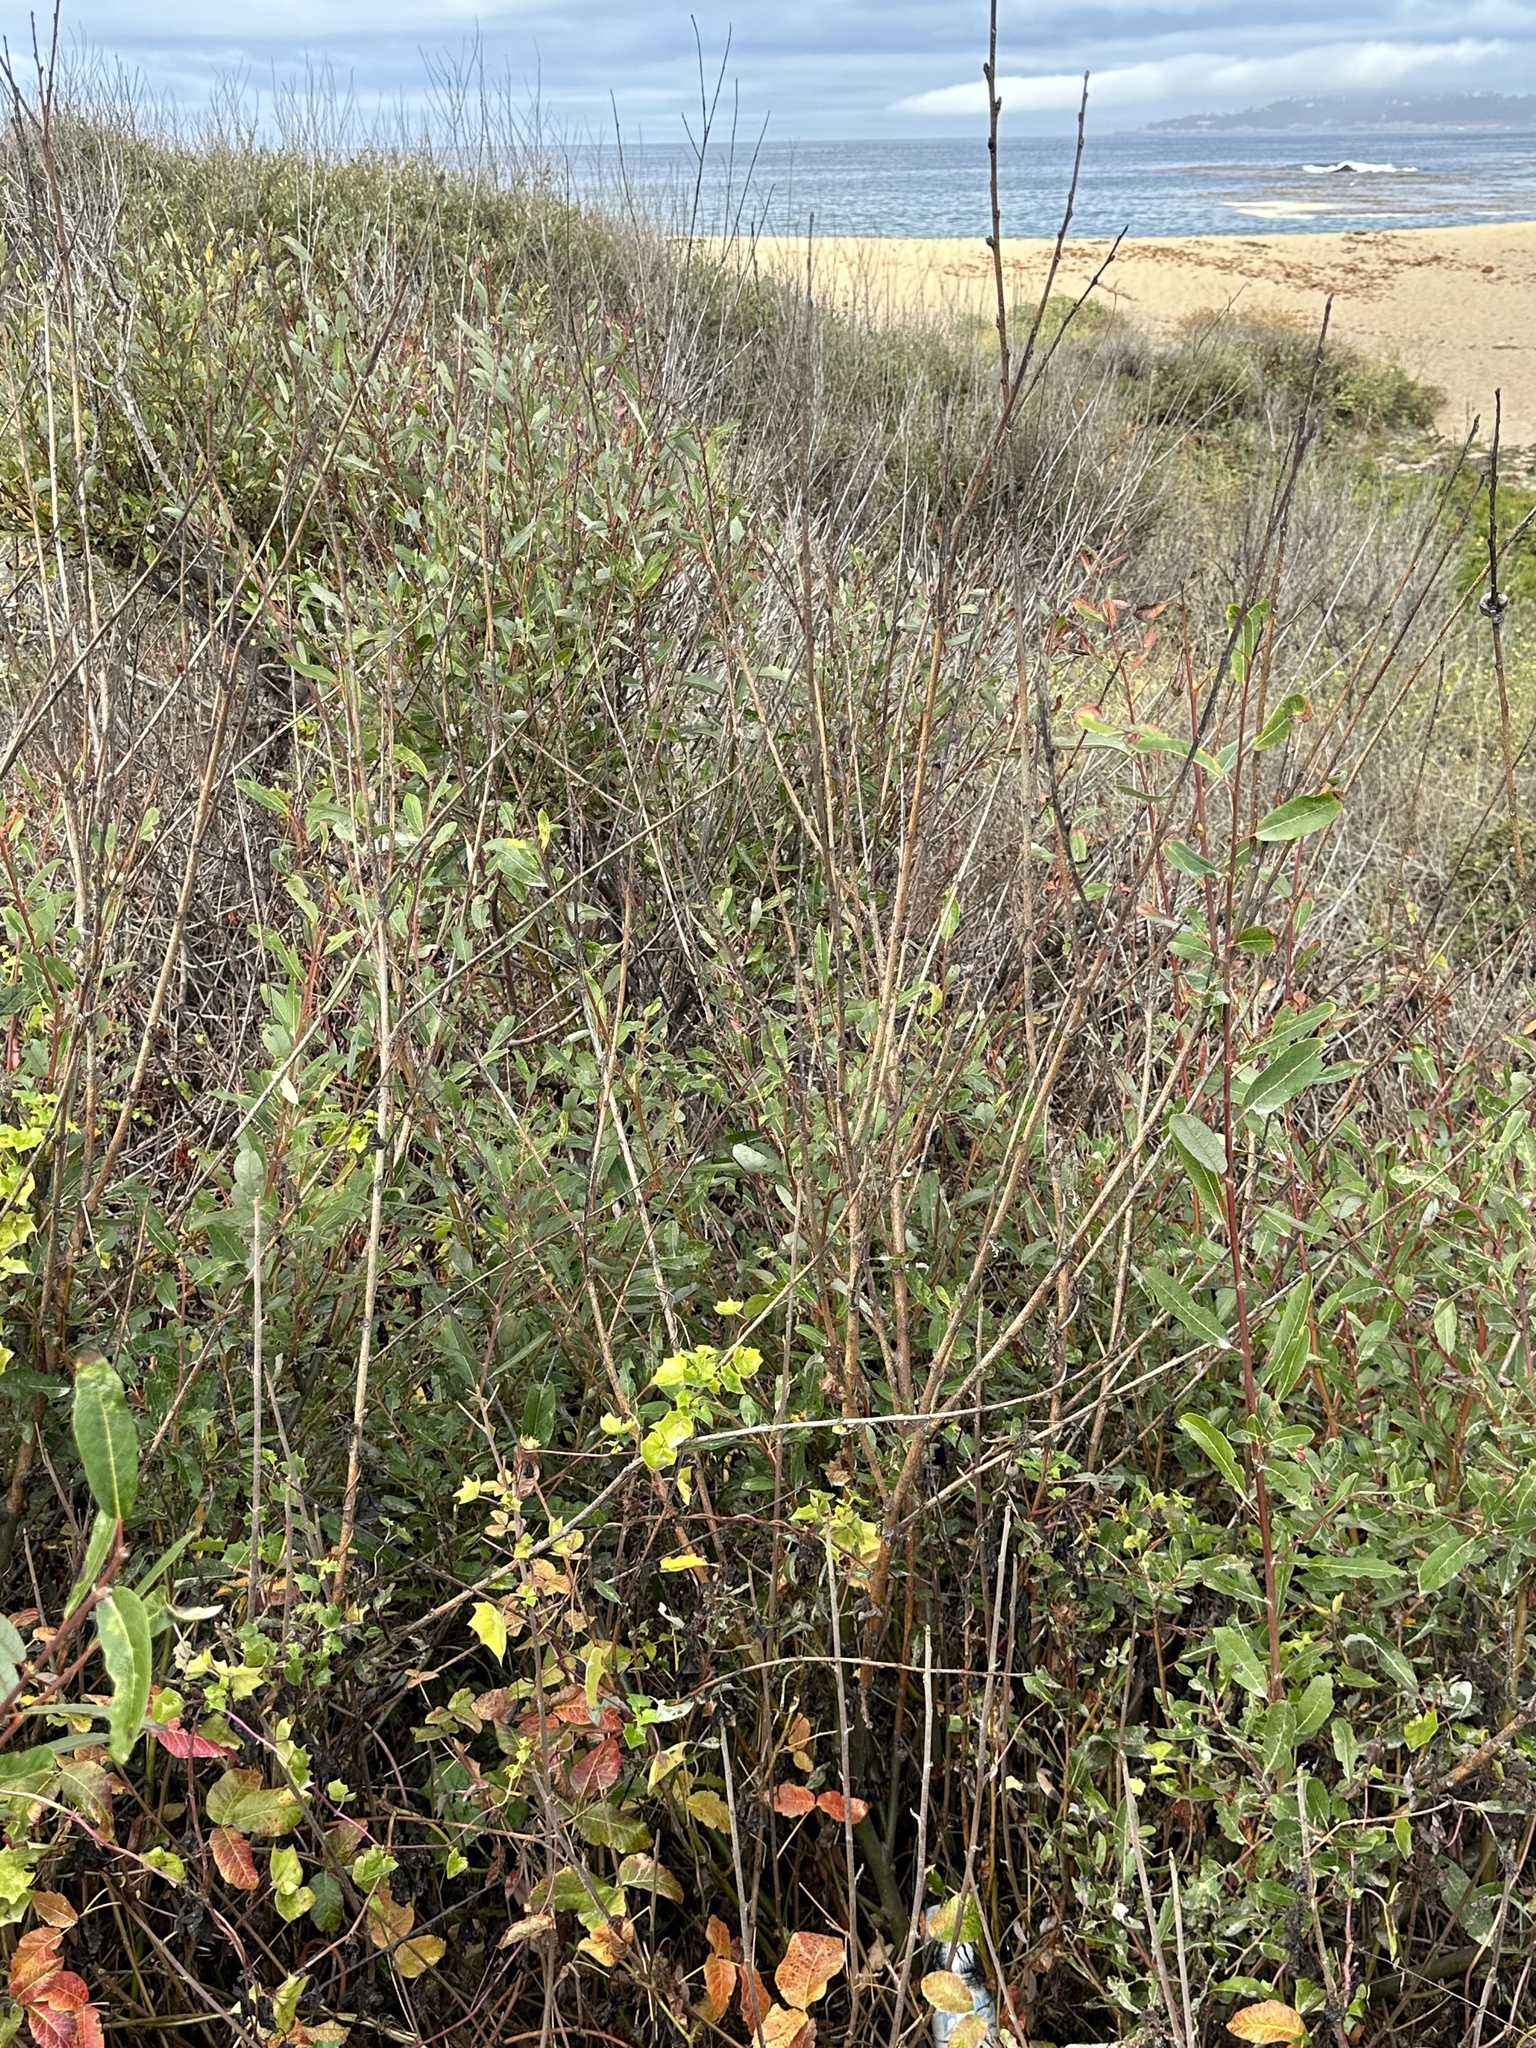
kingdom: Plantae
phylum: Tracheophyta
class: Magnoliopsida
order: Asterales
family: Asteraceae
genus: Delairea
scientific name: Delairea odorata
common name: Cape-ivy
